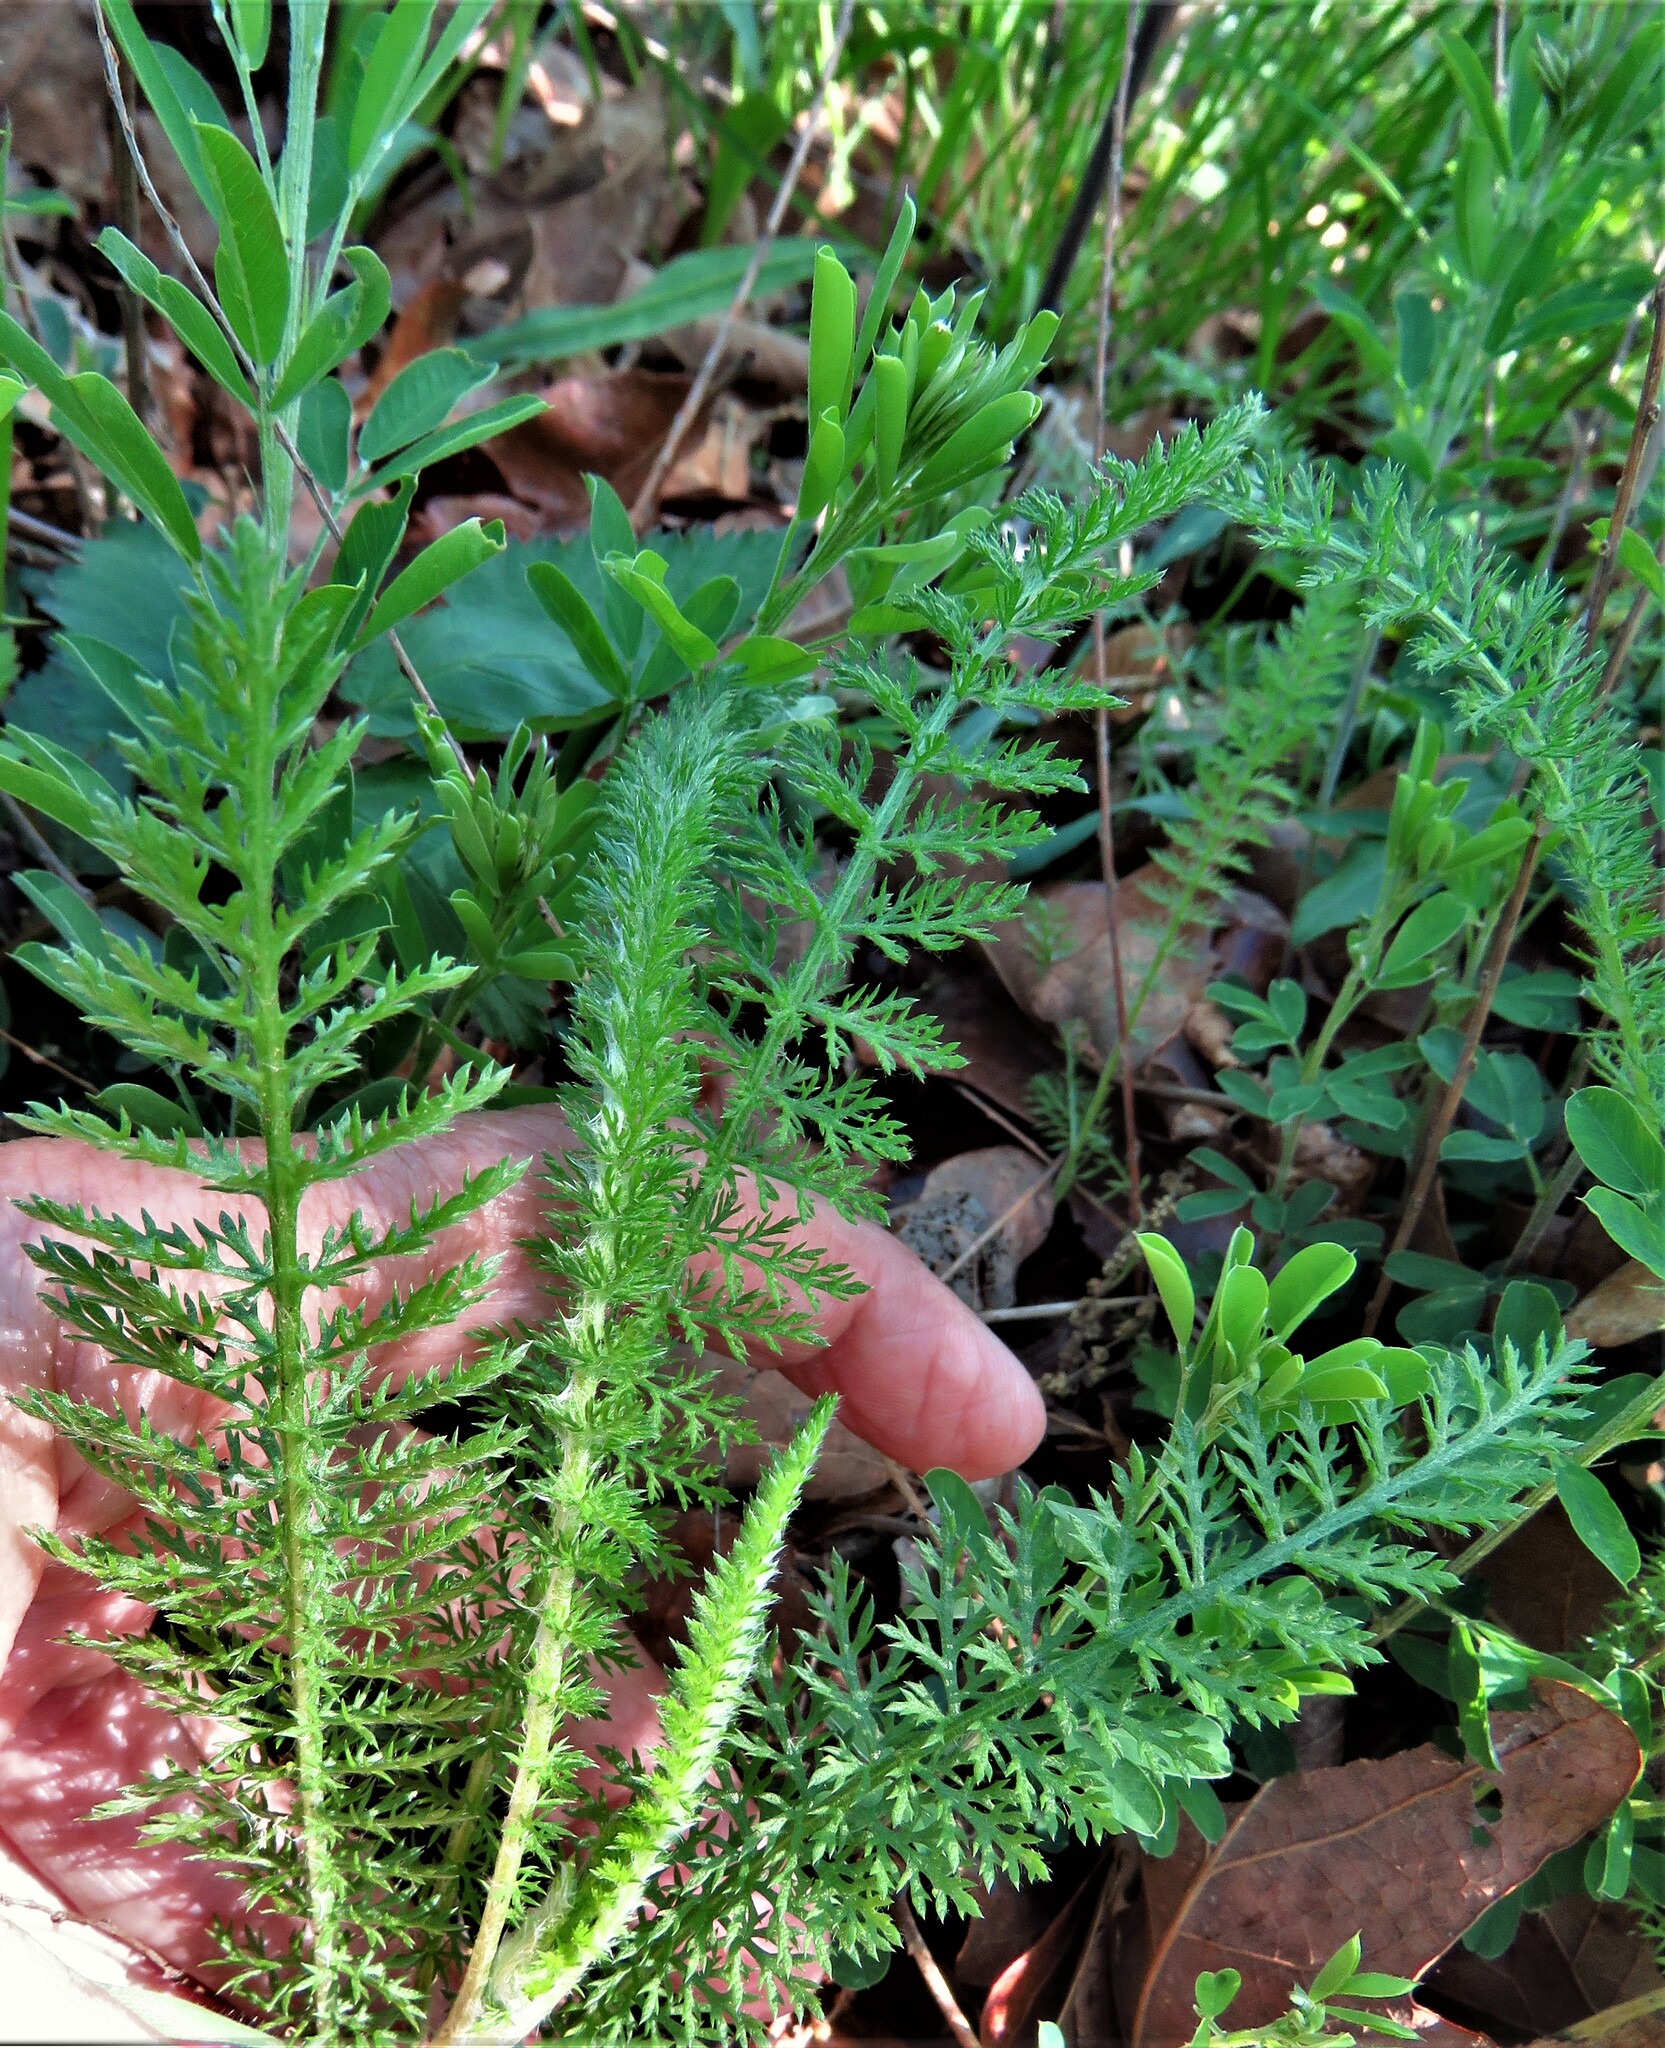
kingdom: Plantae
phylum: Tracheophyta
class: Magnoliopsida
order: Asterales
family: Asteraceae
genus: Achillea
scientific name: Achillea millefolium
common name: Yarrow
